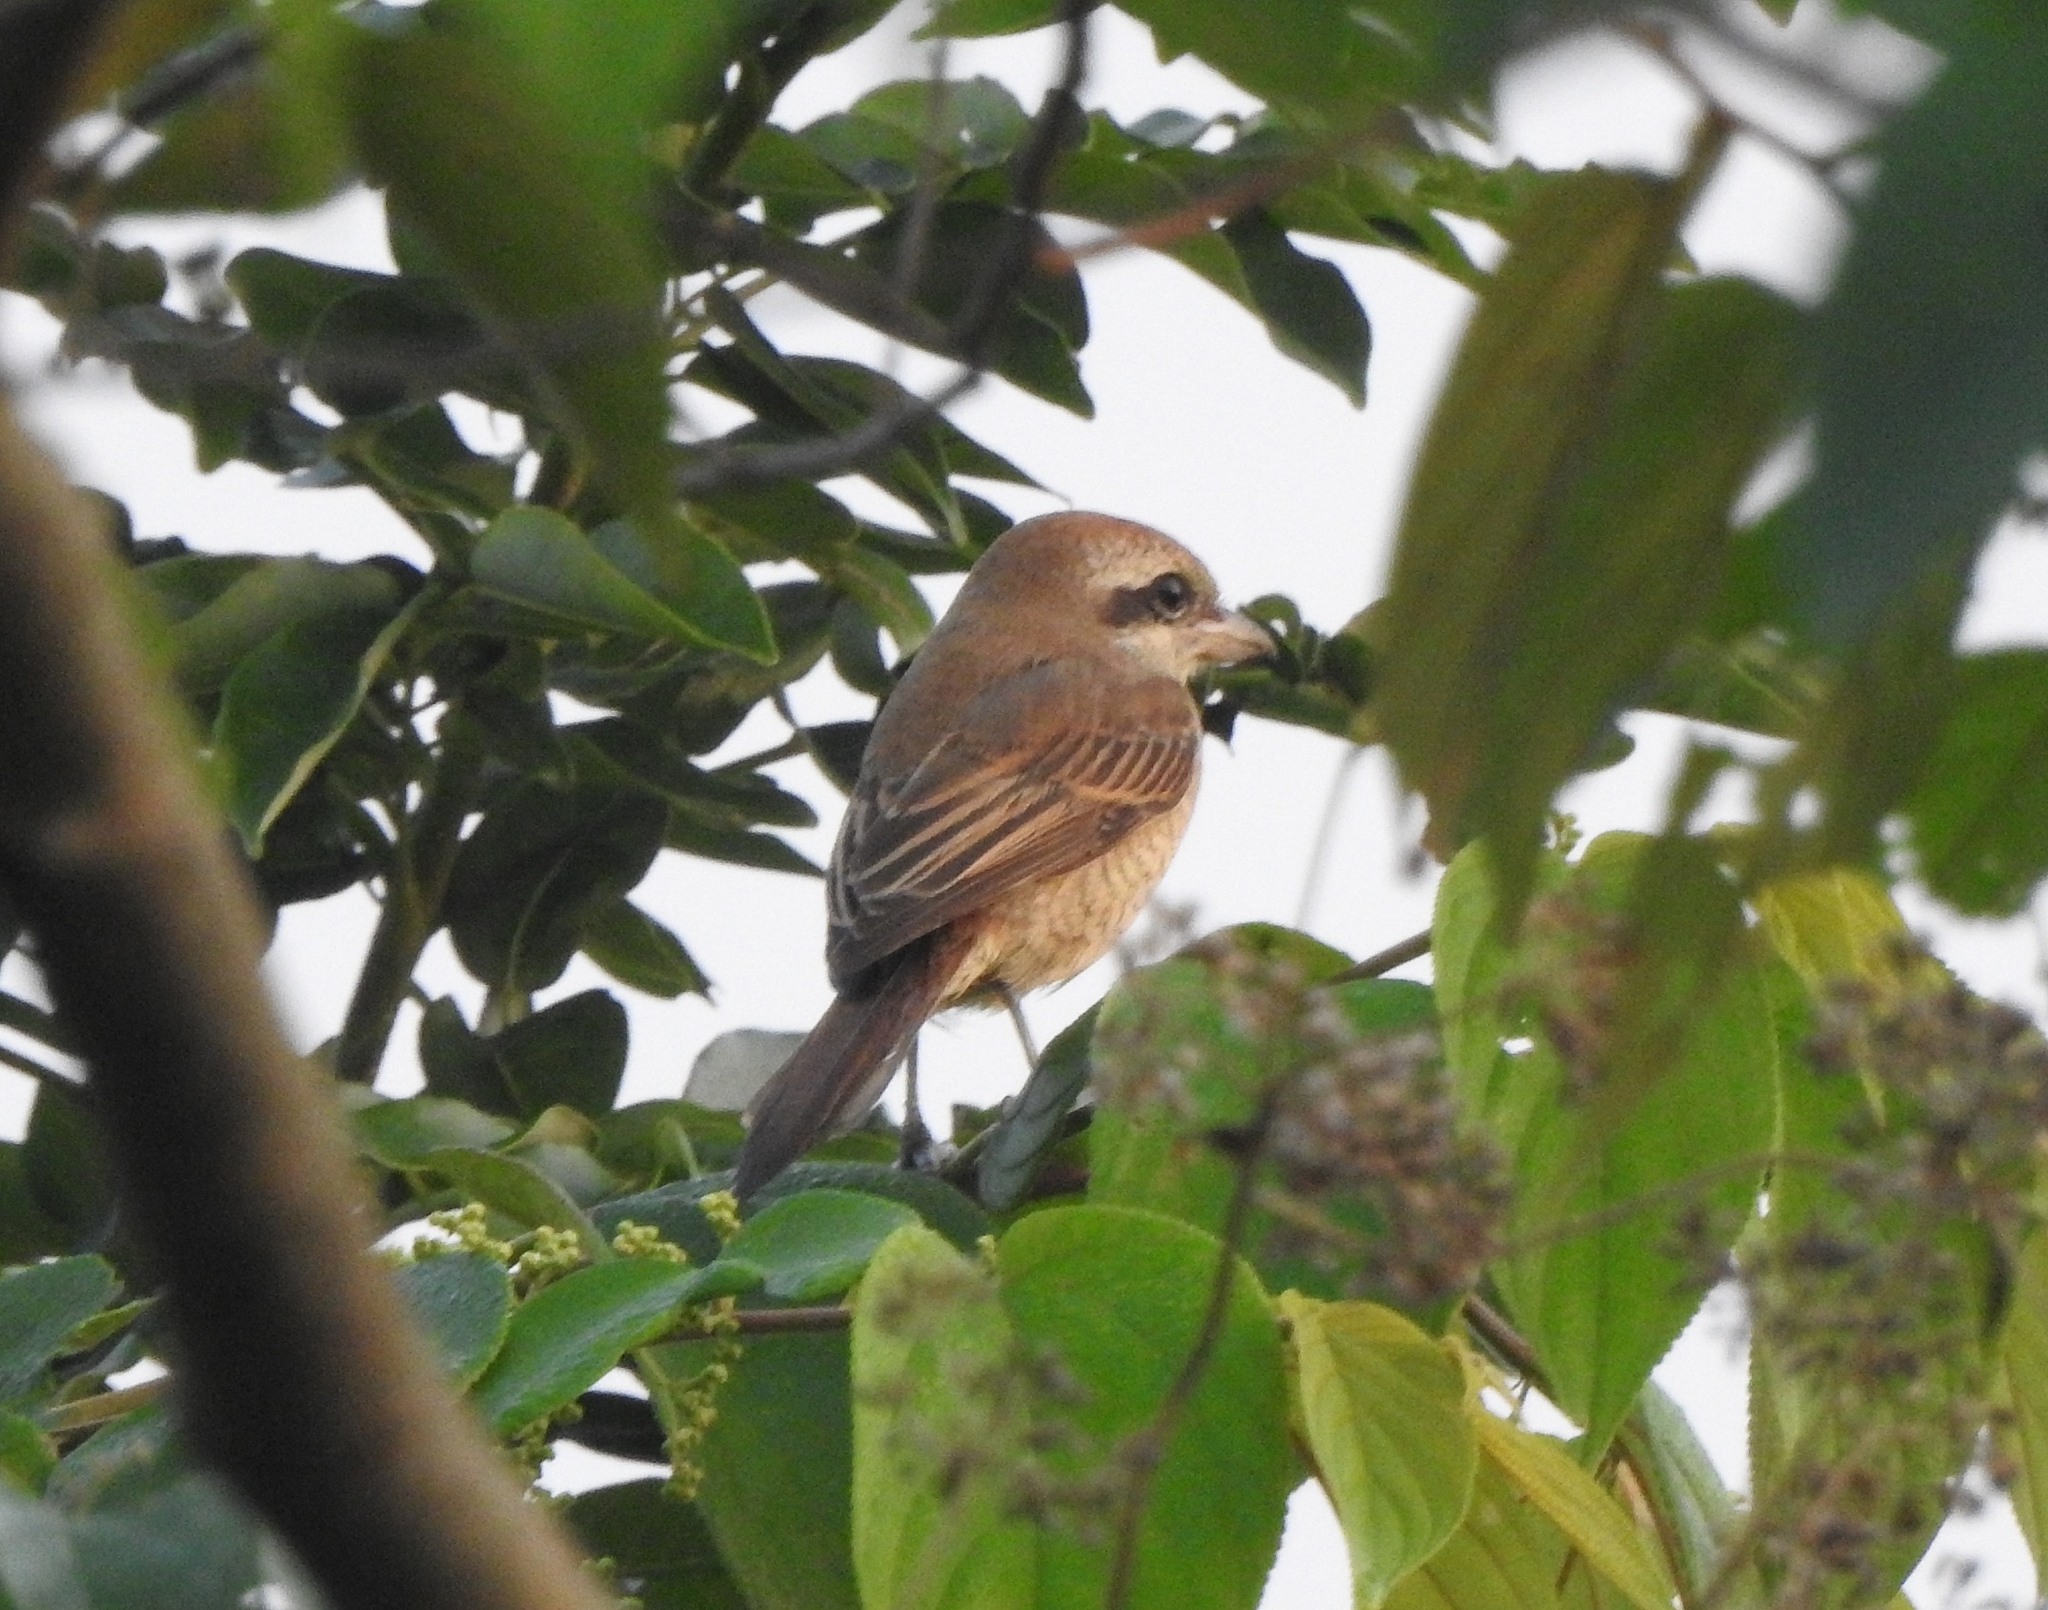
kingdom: Animalia
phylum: Chordata
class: Aves
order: Passeriformes
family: Laniidae
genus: Lanius
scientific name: Lanius cristatus
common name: Brown shrike
